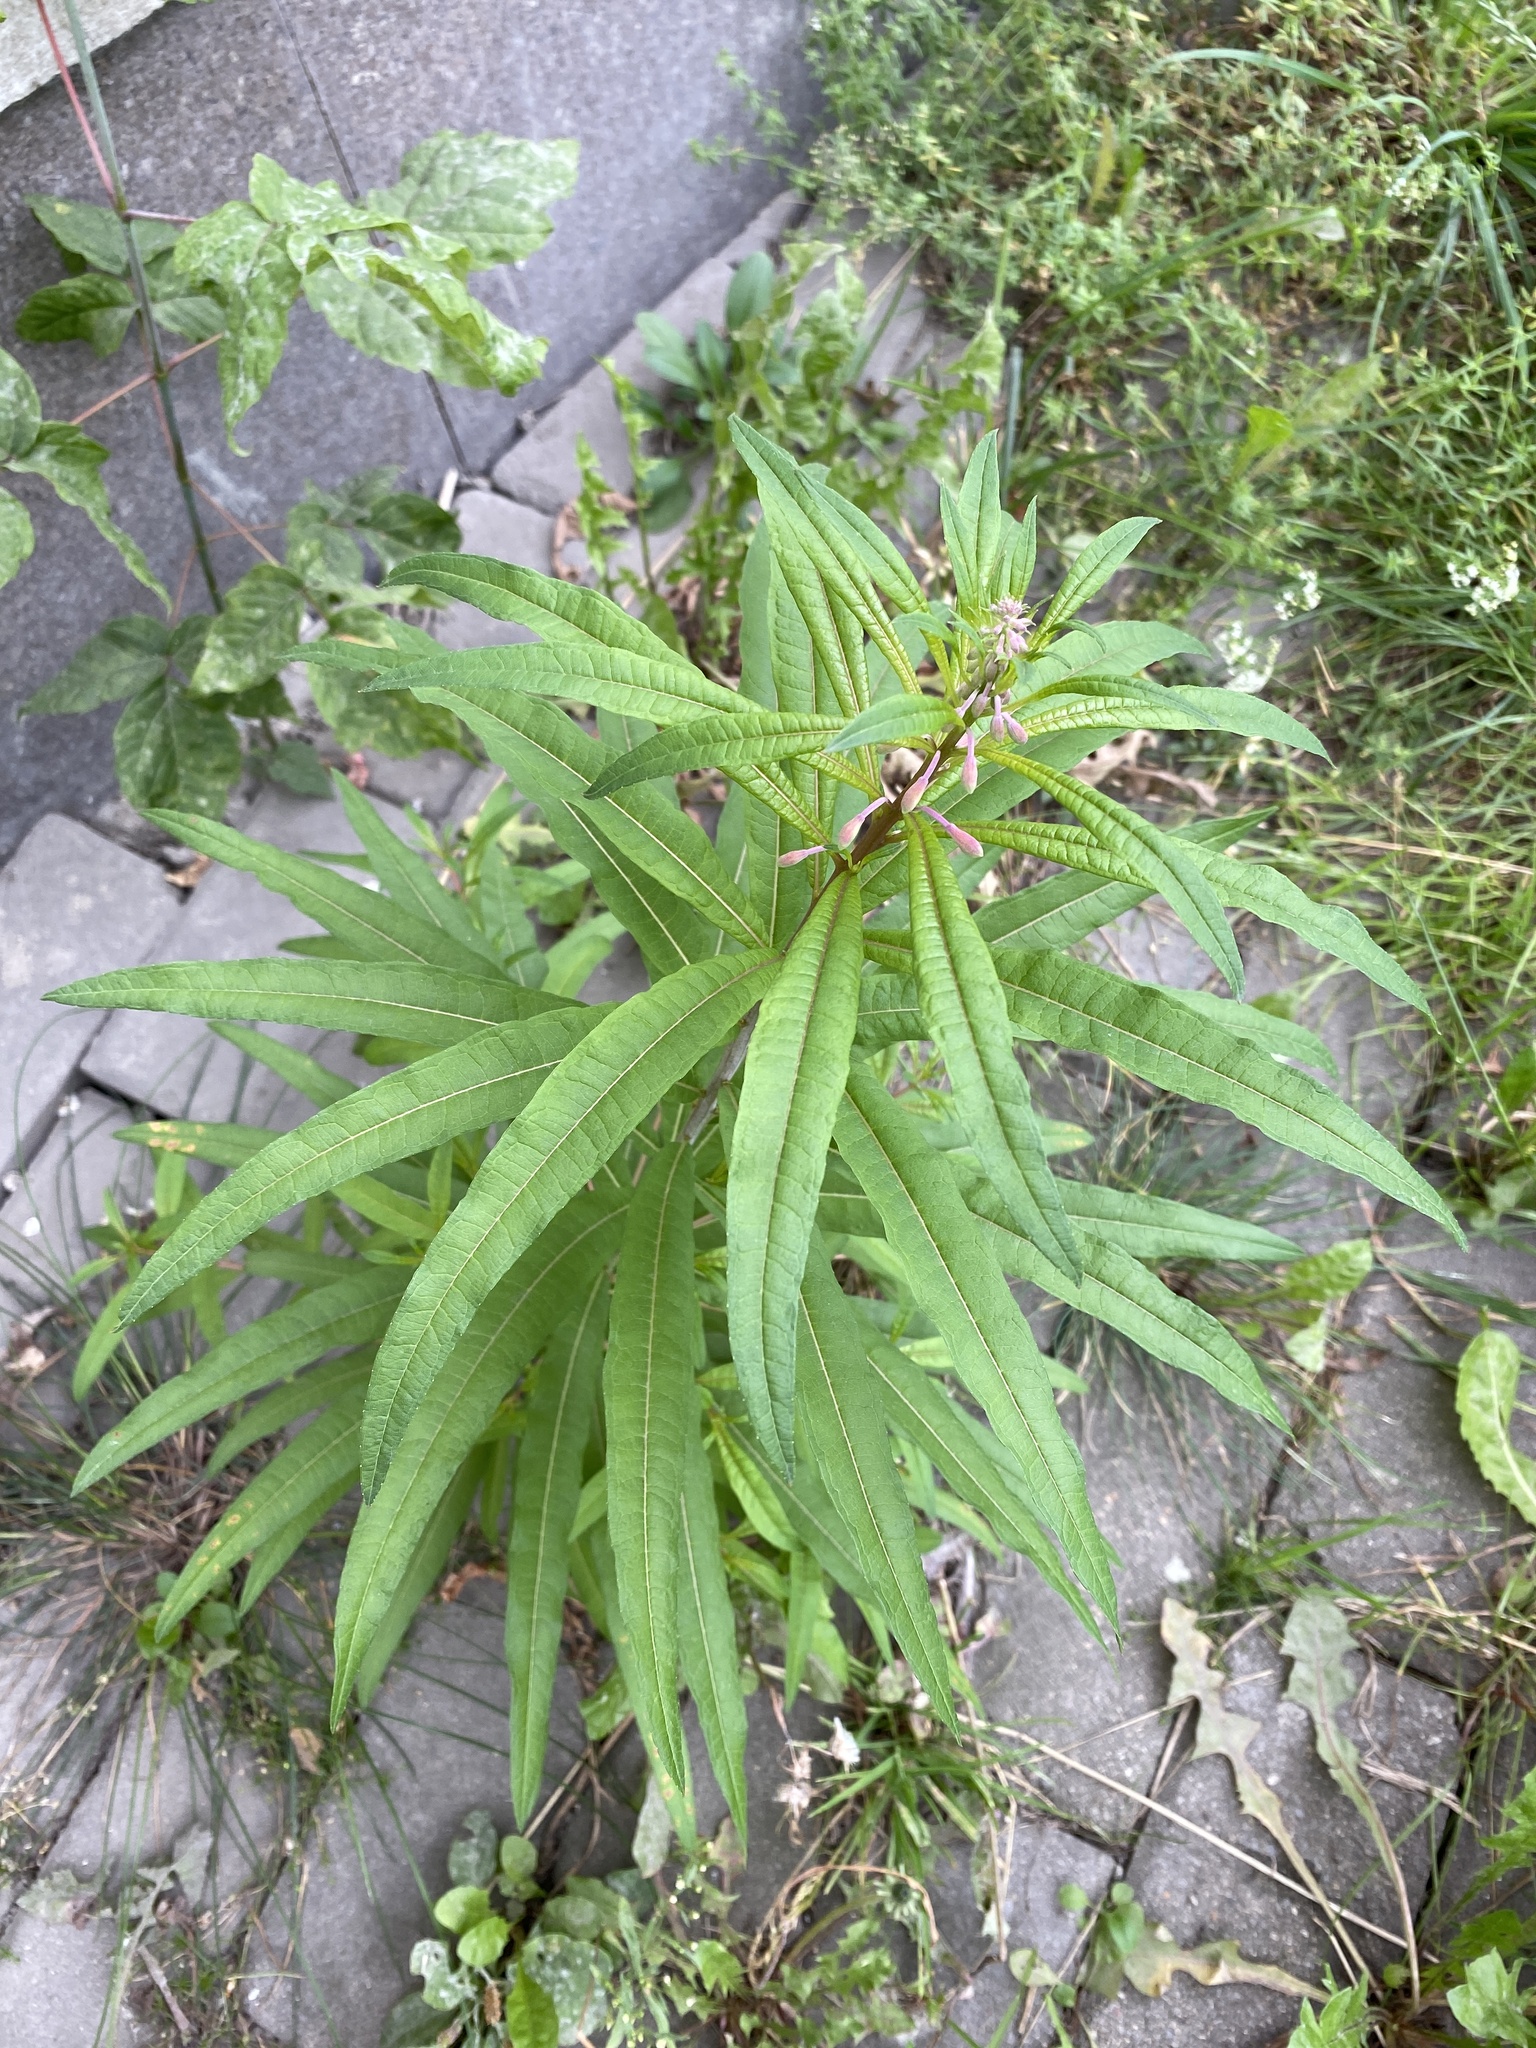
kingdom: Plantae
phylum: Tracheophyta
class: Magnoliopsida
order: Myrtales
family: Onagraceae
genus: Chamaenerion
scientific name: Chamaenerion angustifolium
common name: Fireweed
